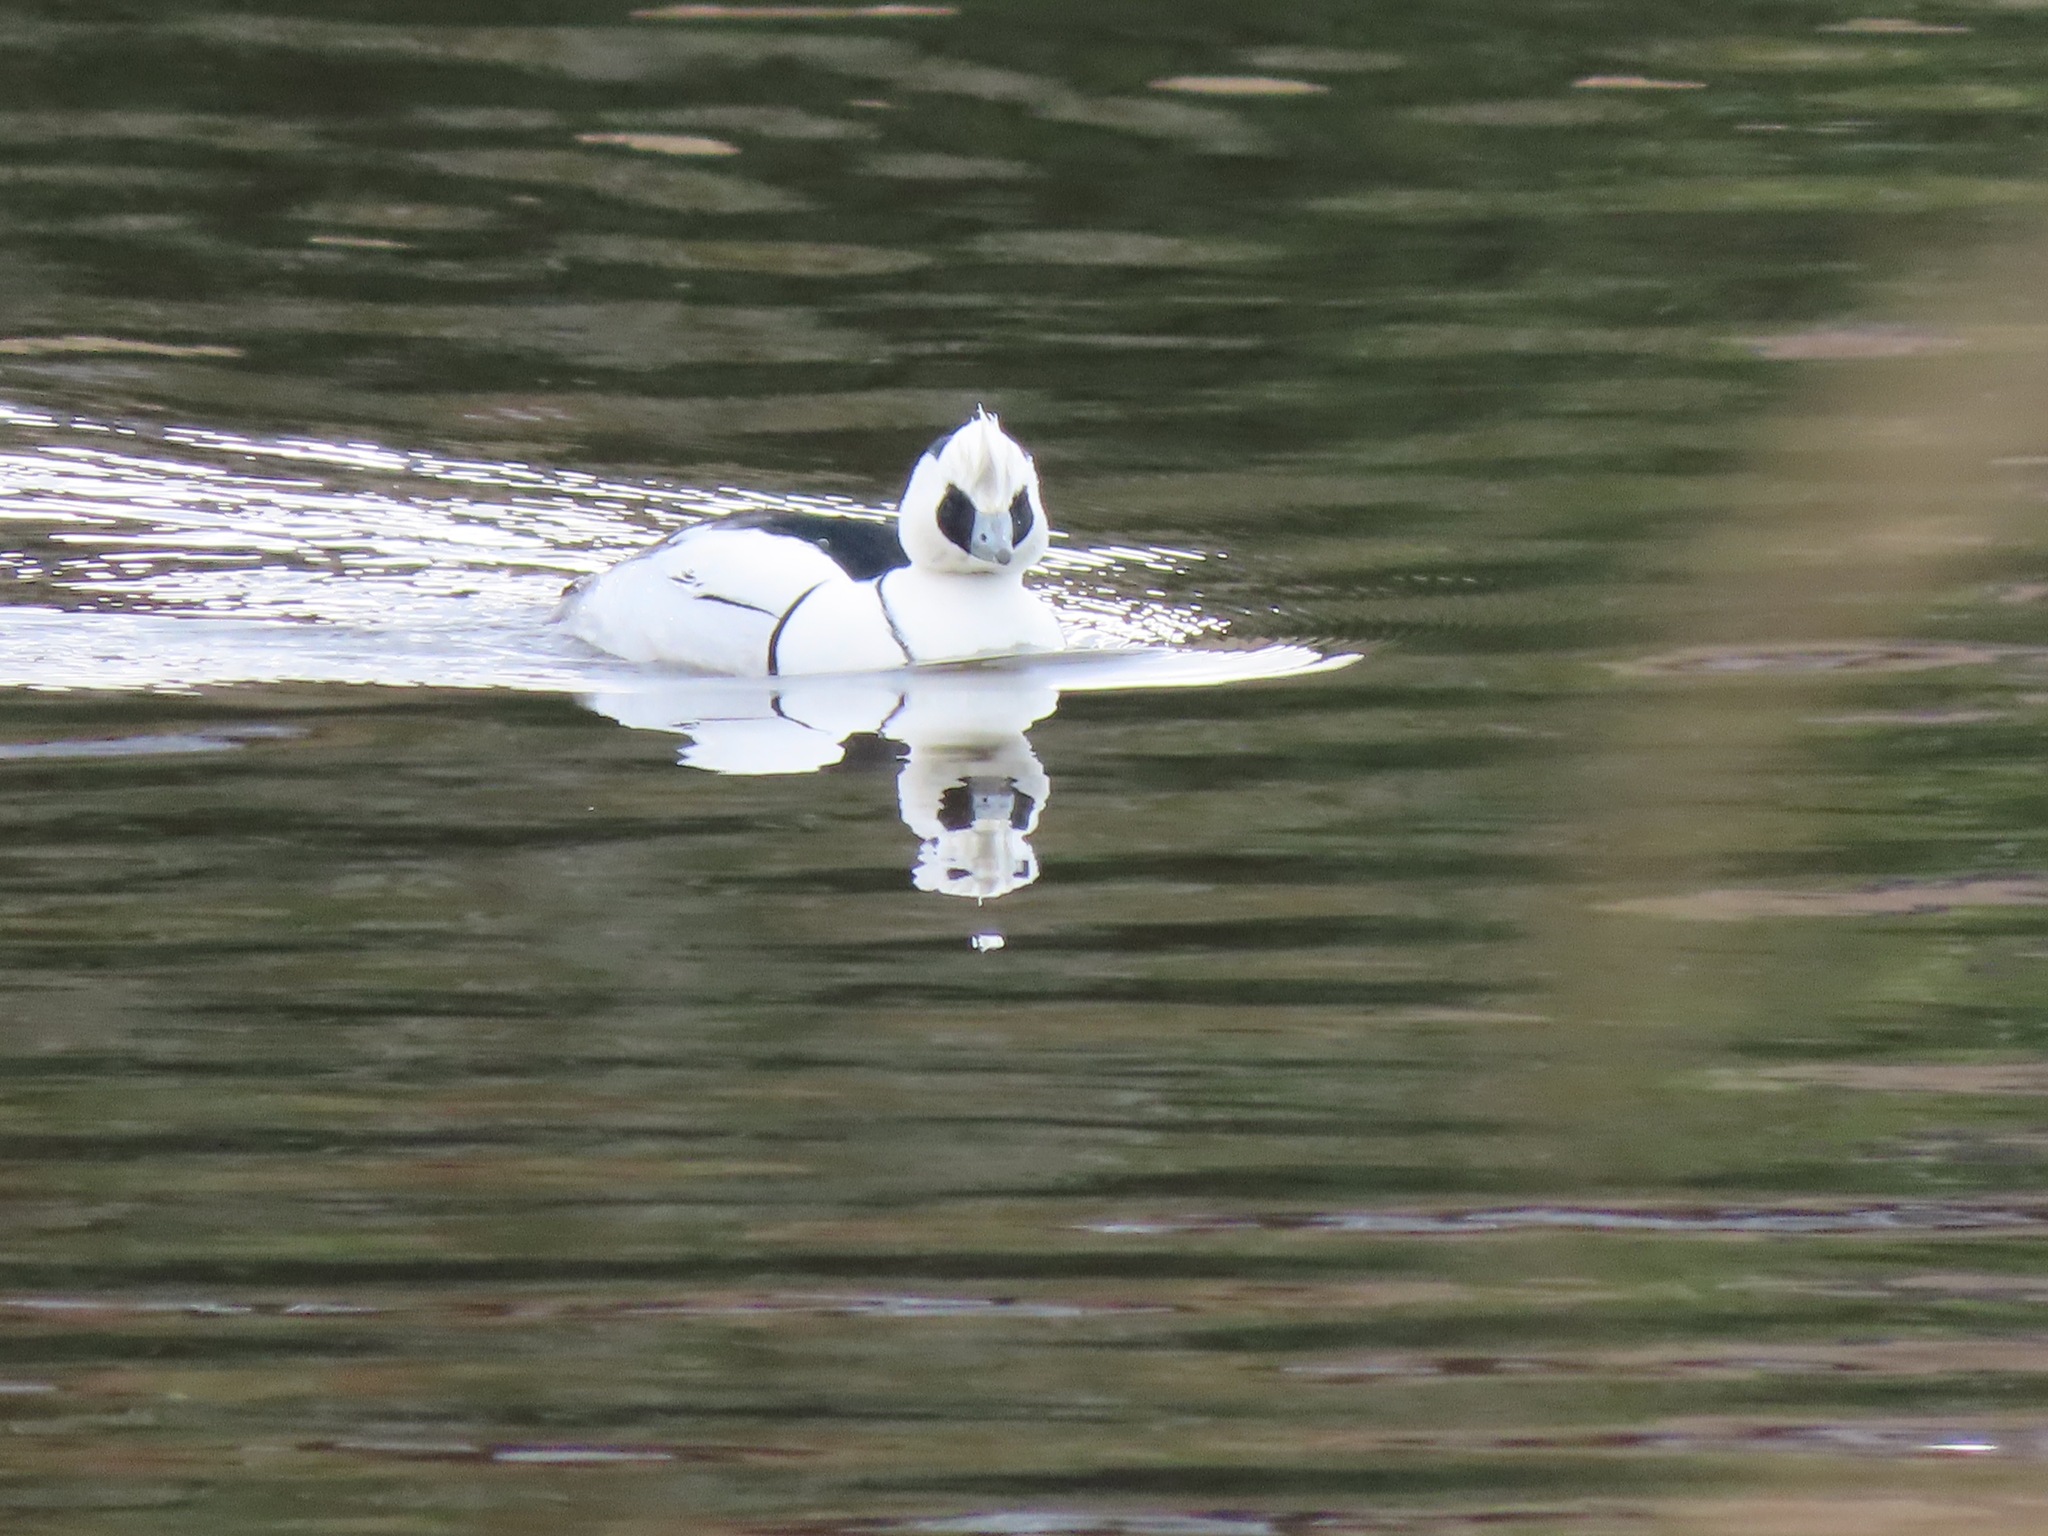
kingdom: Animalia
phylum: Chordata
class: Aves
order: Anseriformes
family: Anatidae
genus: Mergellus
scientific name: Mergellus albellus
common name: Smew
